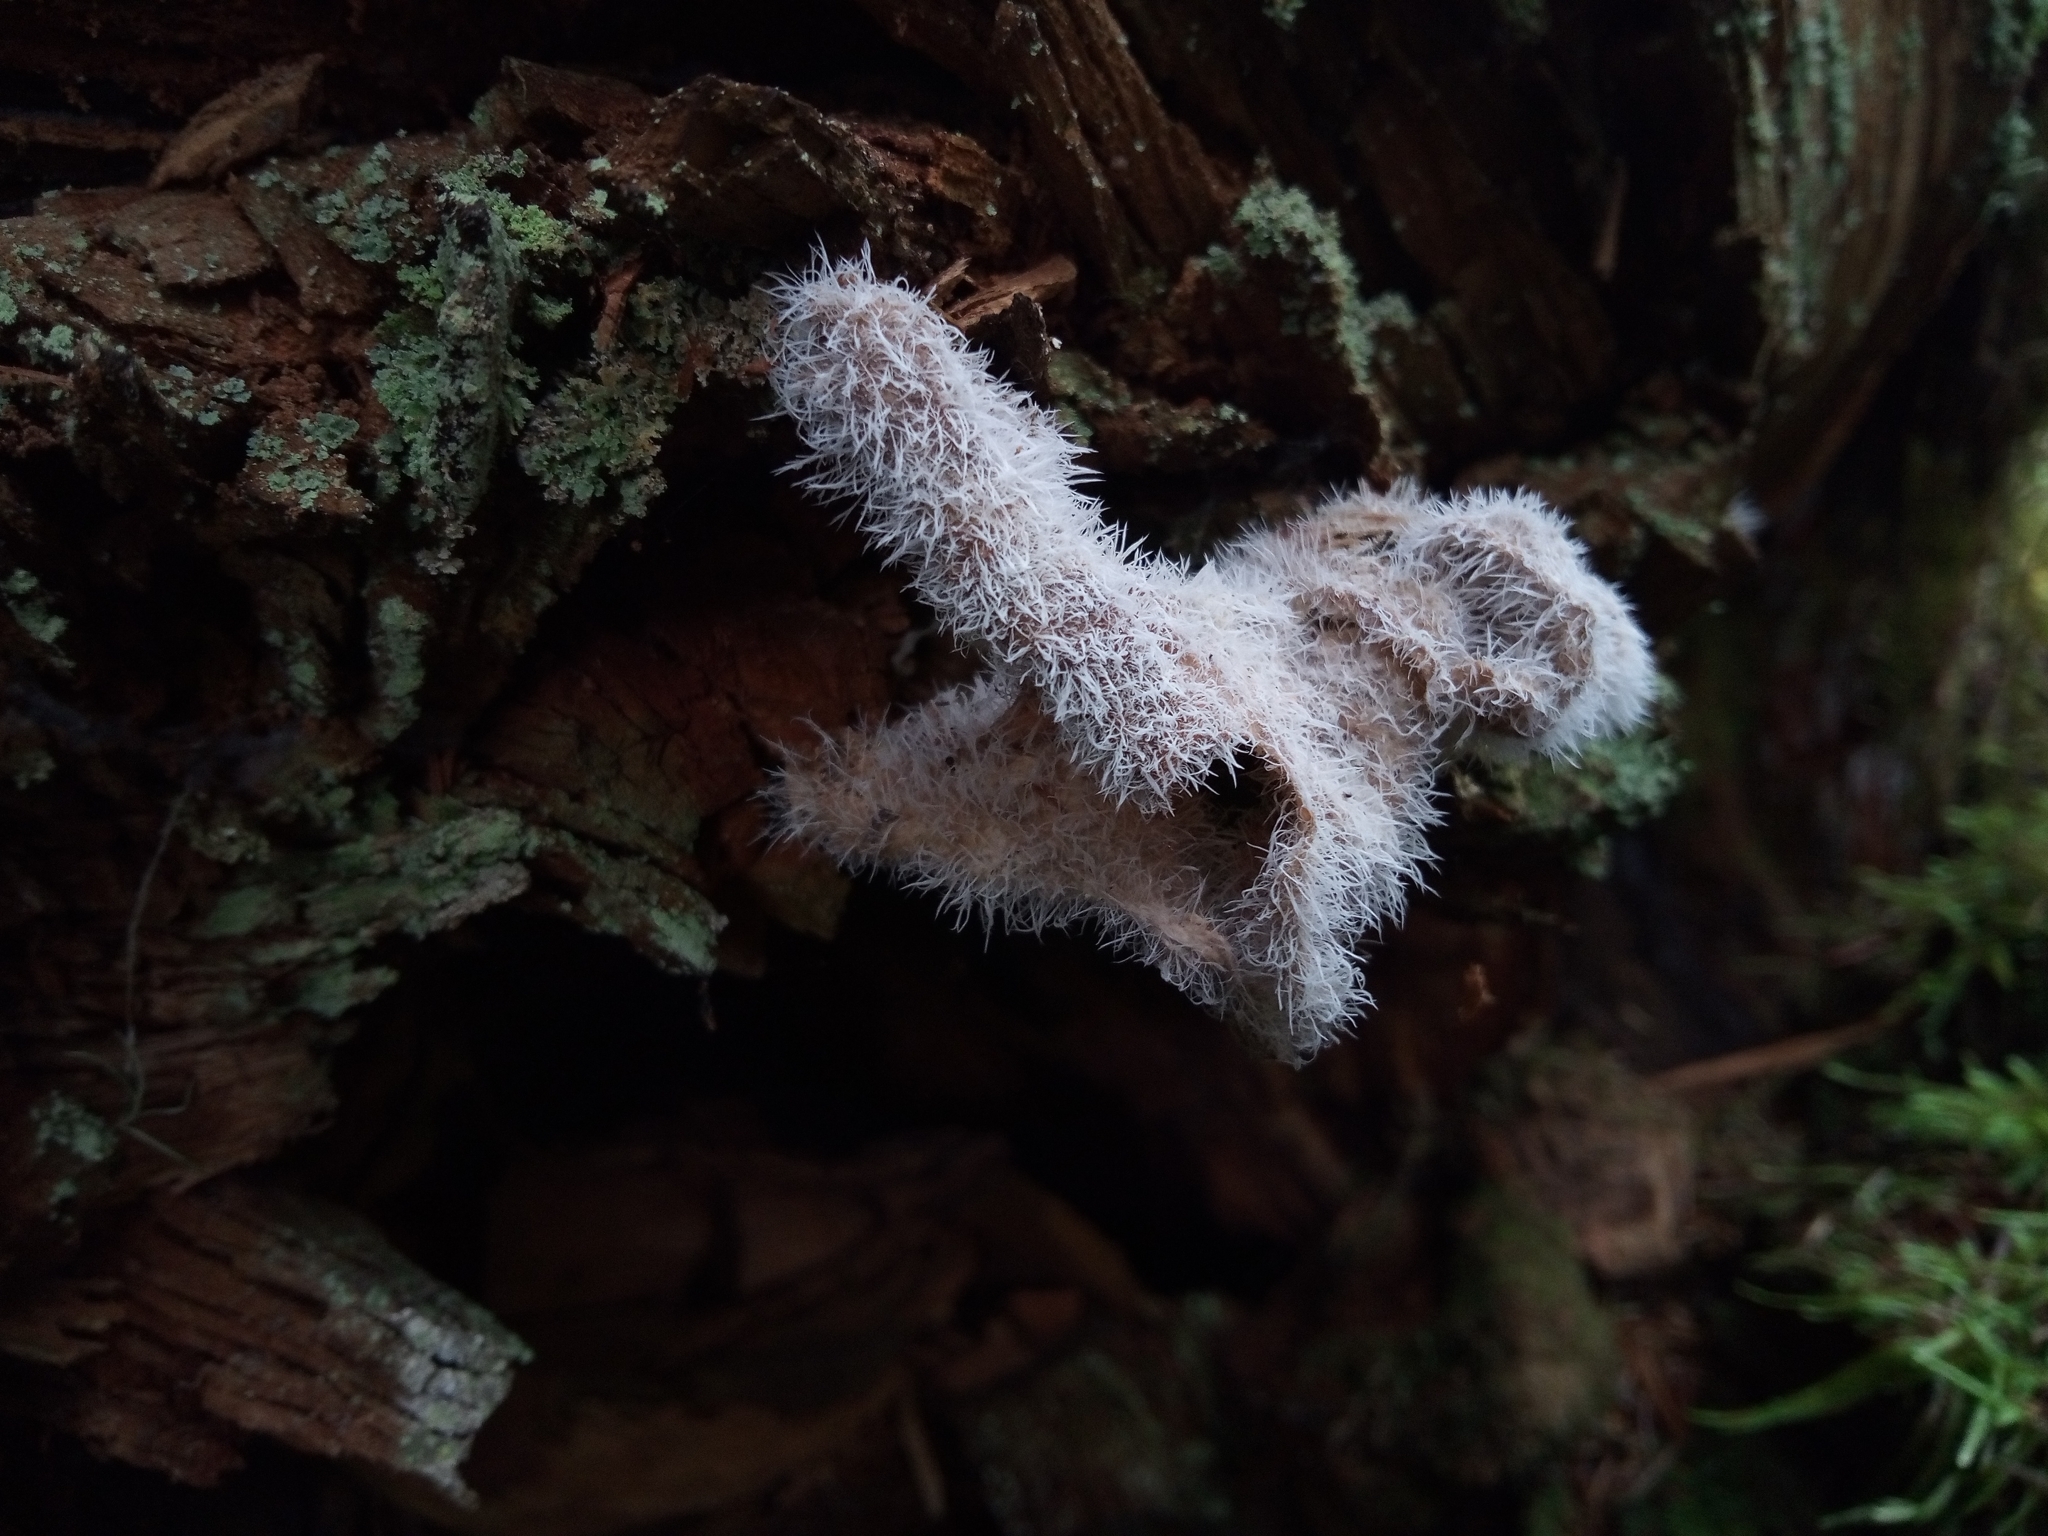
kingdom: Fungi
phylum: Ascomycota
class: Sordariomycetes
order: Hypocreales
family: Tilachlidiaceae
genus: Tilachlidium
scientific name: Tilachlidium brachiatum
